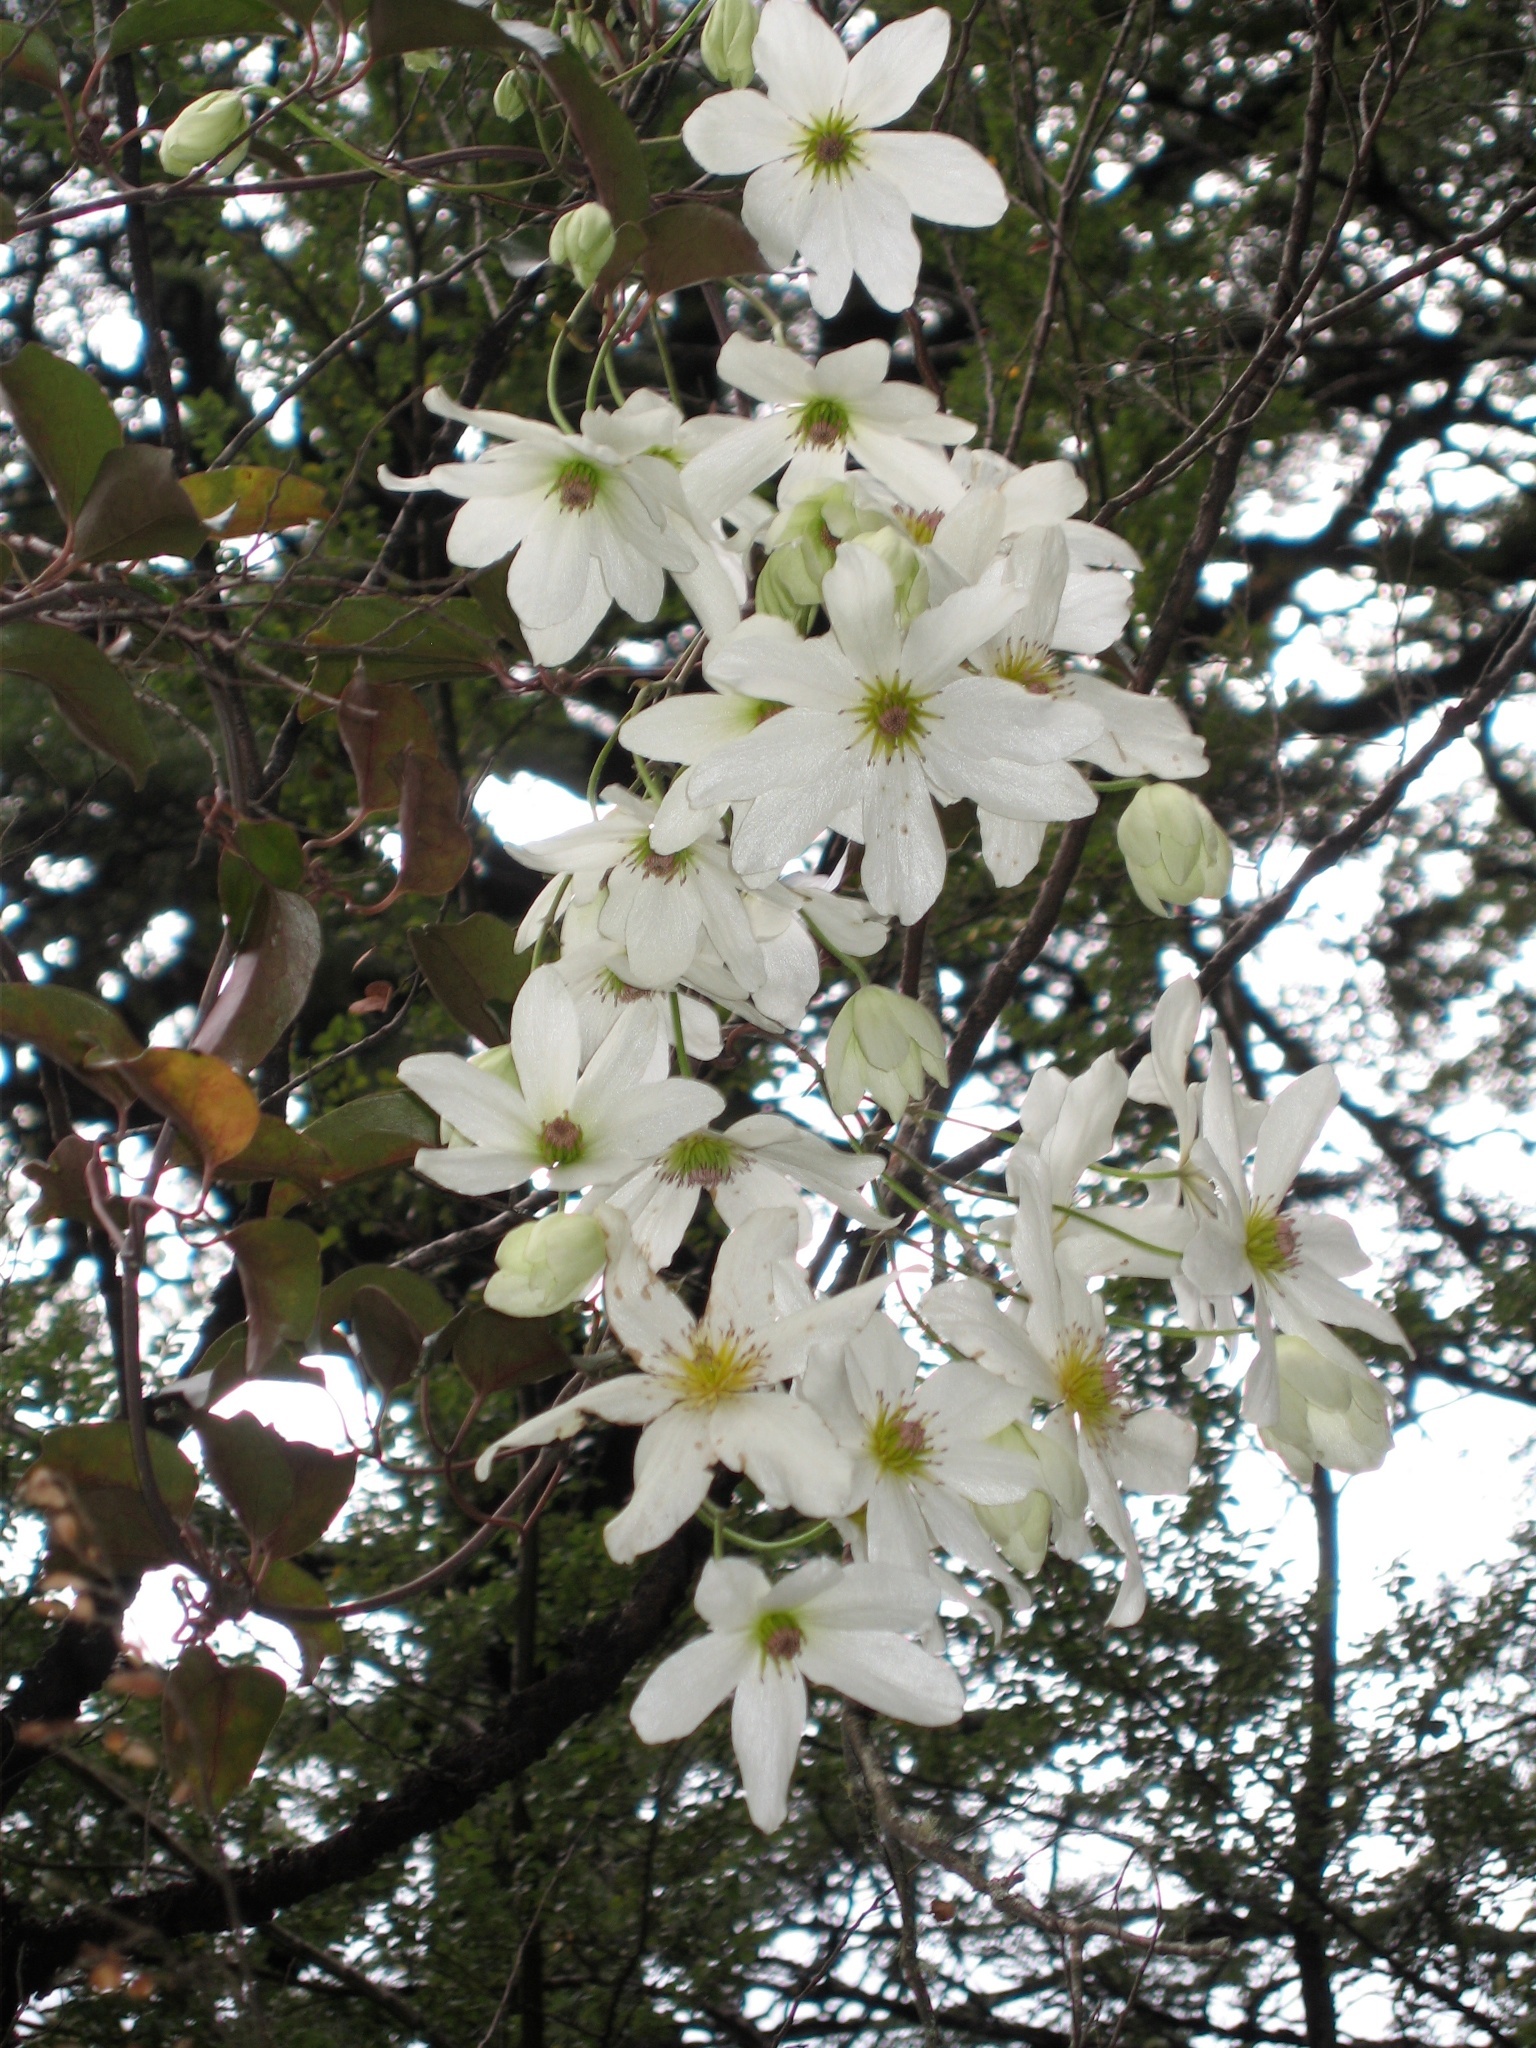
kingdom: Plantae
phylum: Tracheophyta
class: Magnoliopsida
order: Ranunculales
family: Ranunculaceae
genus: Clematis
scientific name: Clematis paniculata
